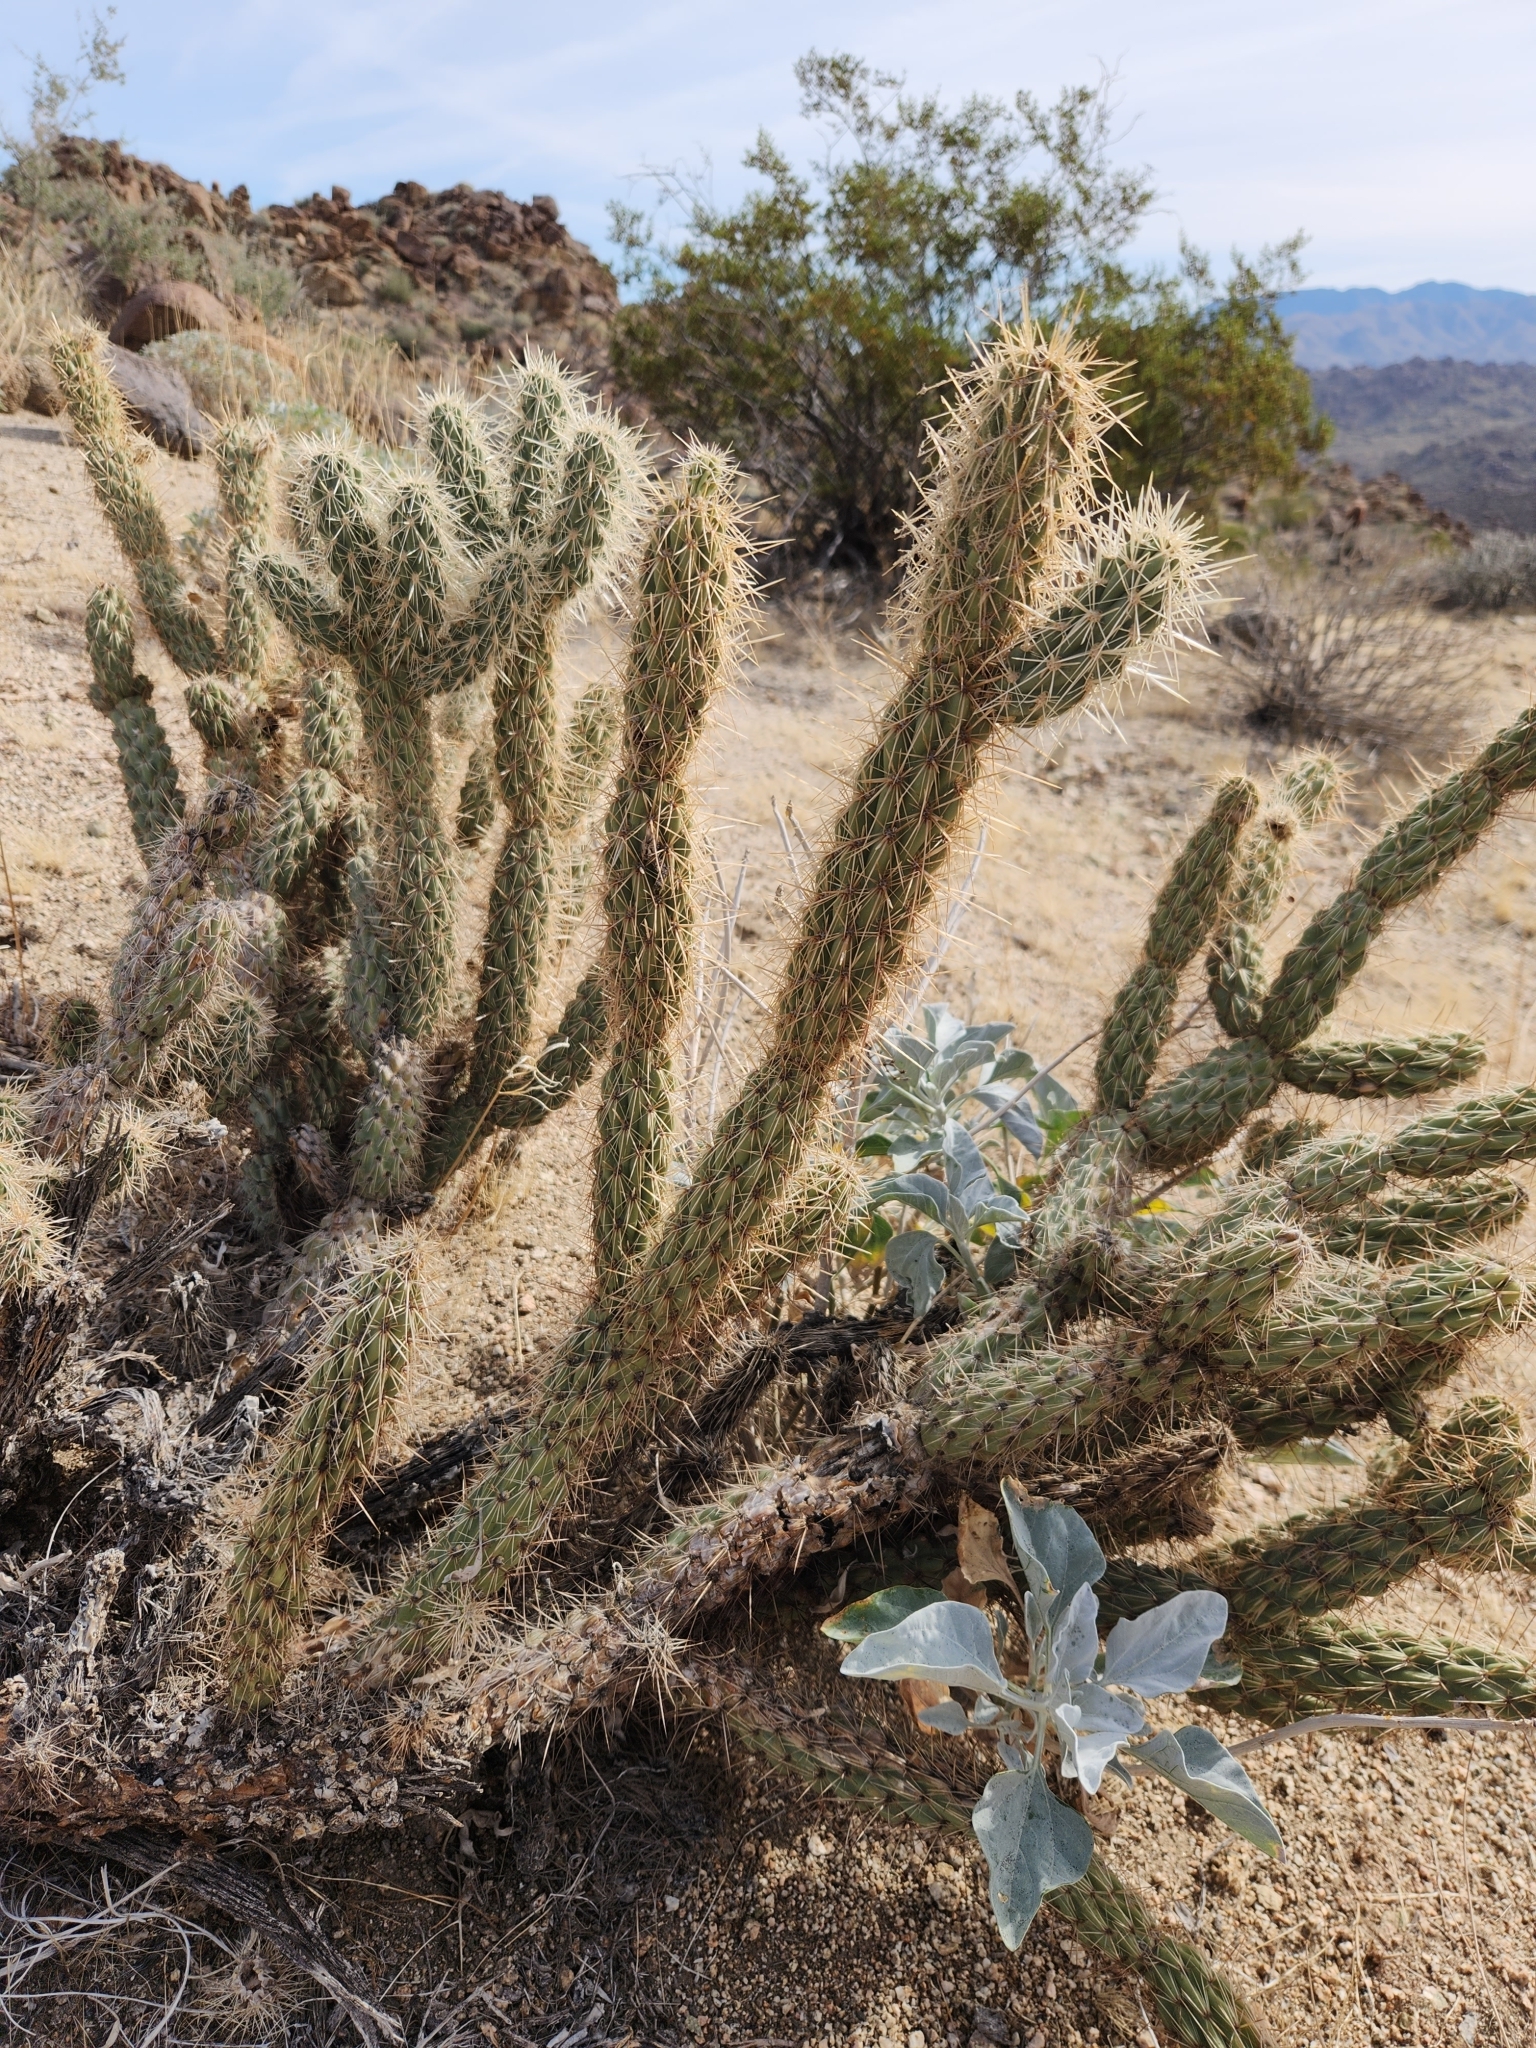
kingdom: Plantae
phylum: Tracheophyta
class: Magnoliopsida
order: Caryophyllales
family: Cactaceae
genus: Cylindropuntia
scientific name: Cylindropuntia ganderi
